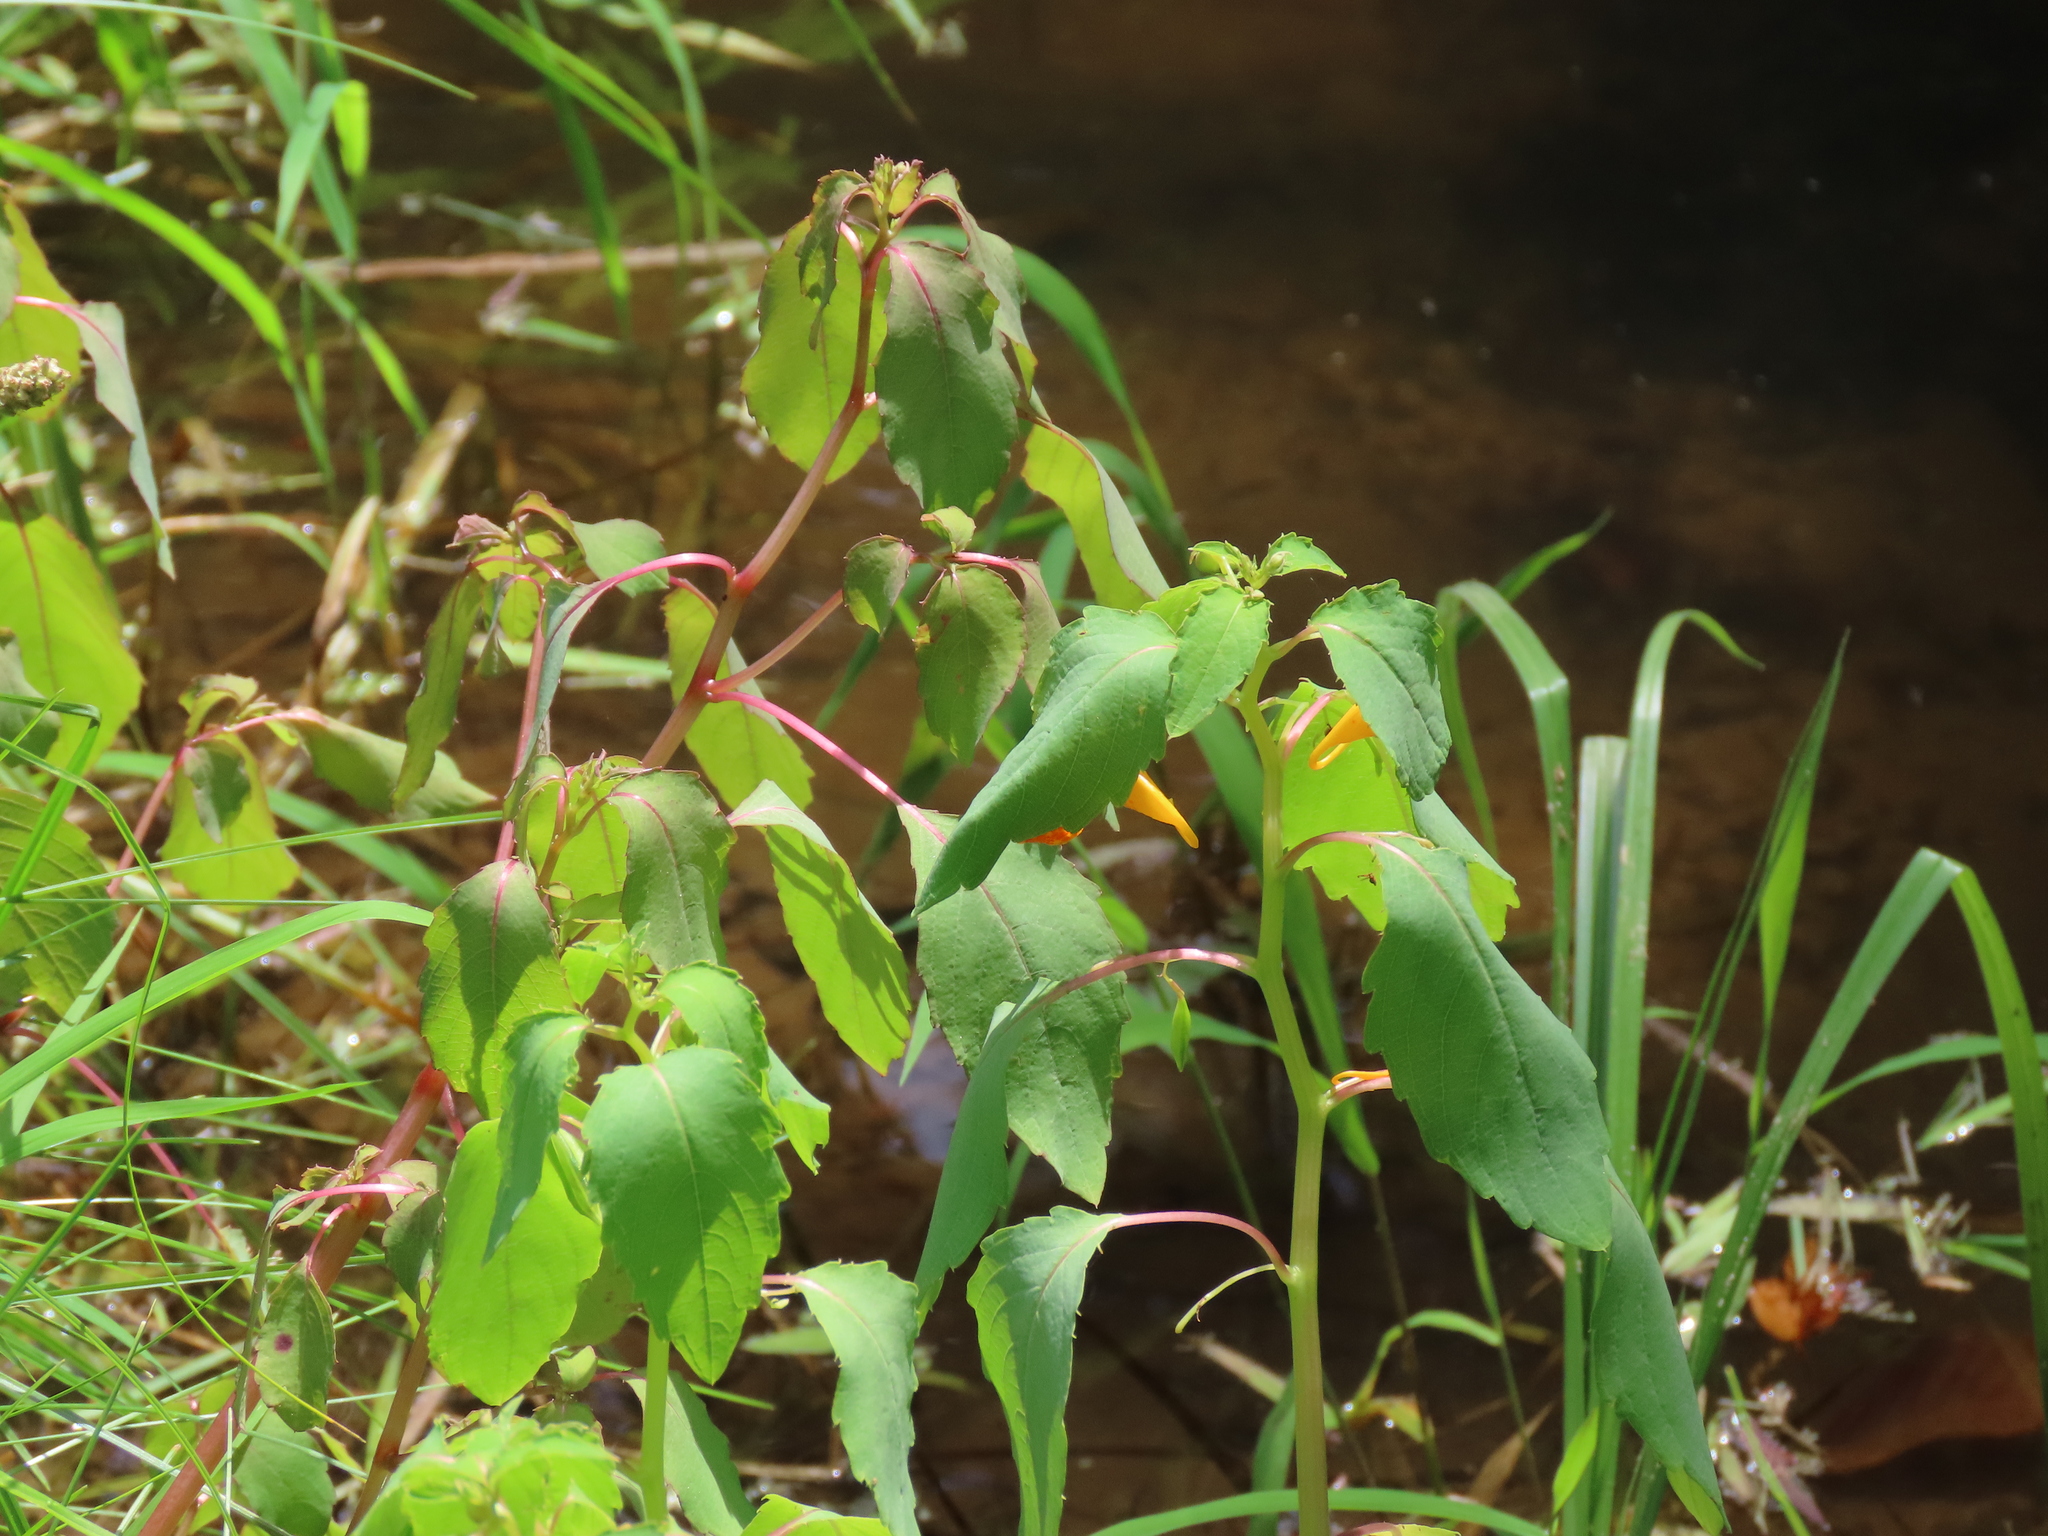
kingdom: Plantae
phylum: Tracheophyta
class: Magnoliopsida
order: Ericales
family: Balsaminaceae
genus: Impatiens
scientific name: Impatiens capensis
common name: Orange balsam
